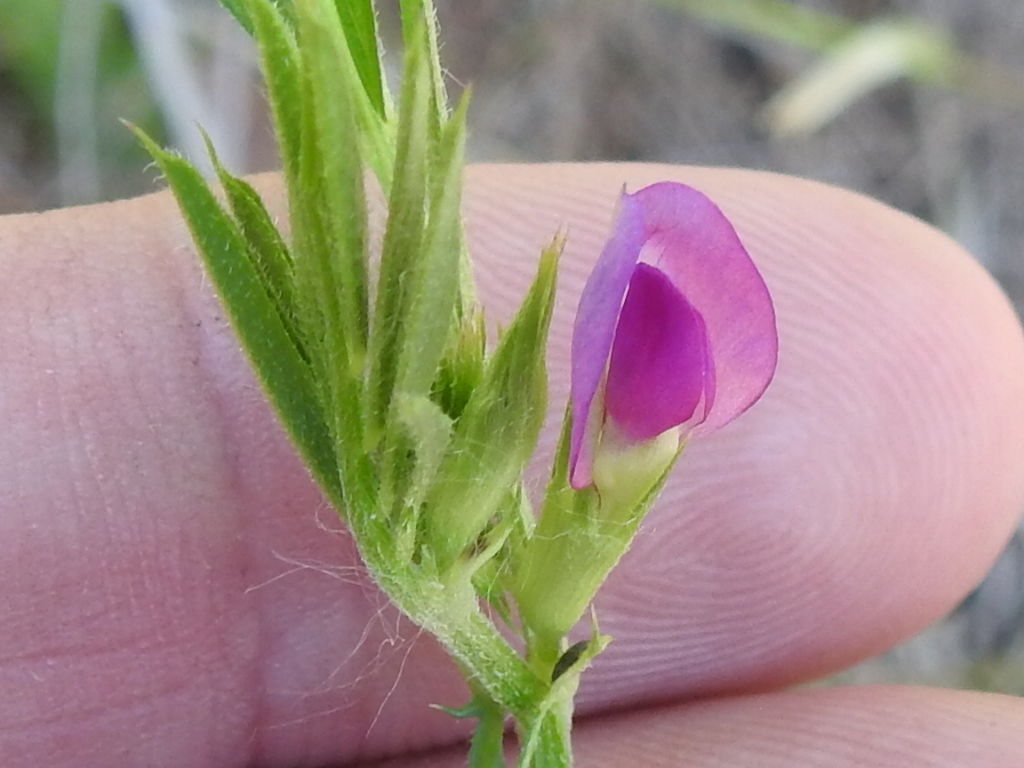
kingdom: Plantae
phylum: Tracheophyta
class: Magnoliopsida
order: Fabales
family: Fabaceae
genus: Vicia
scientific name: Vicia sativa
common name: Garden vetch
